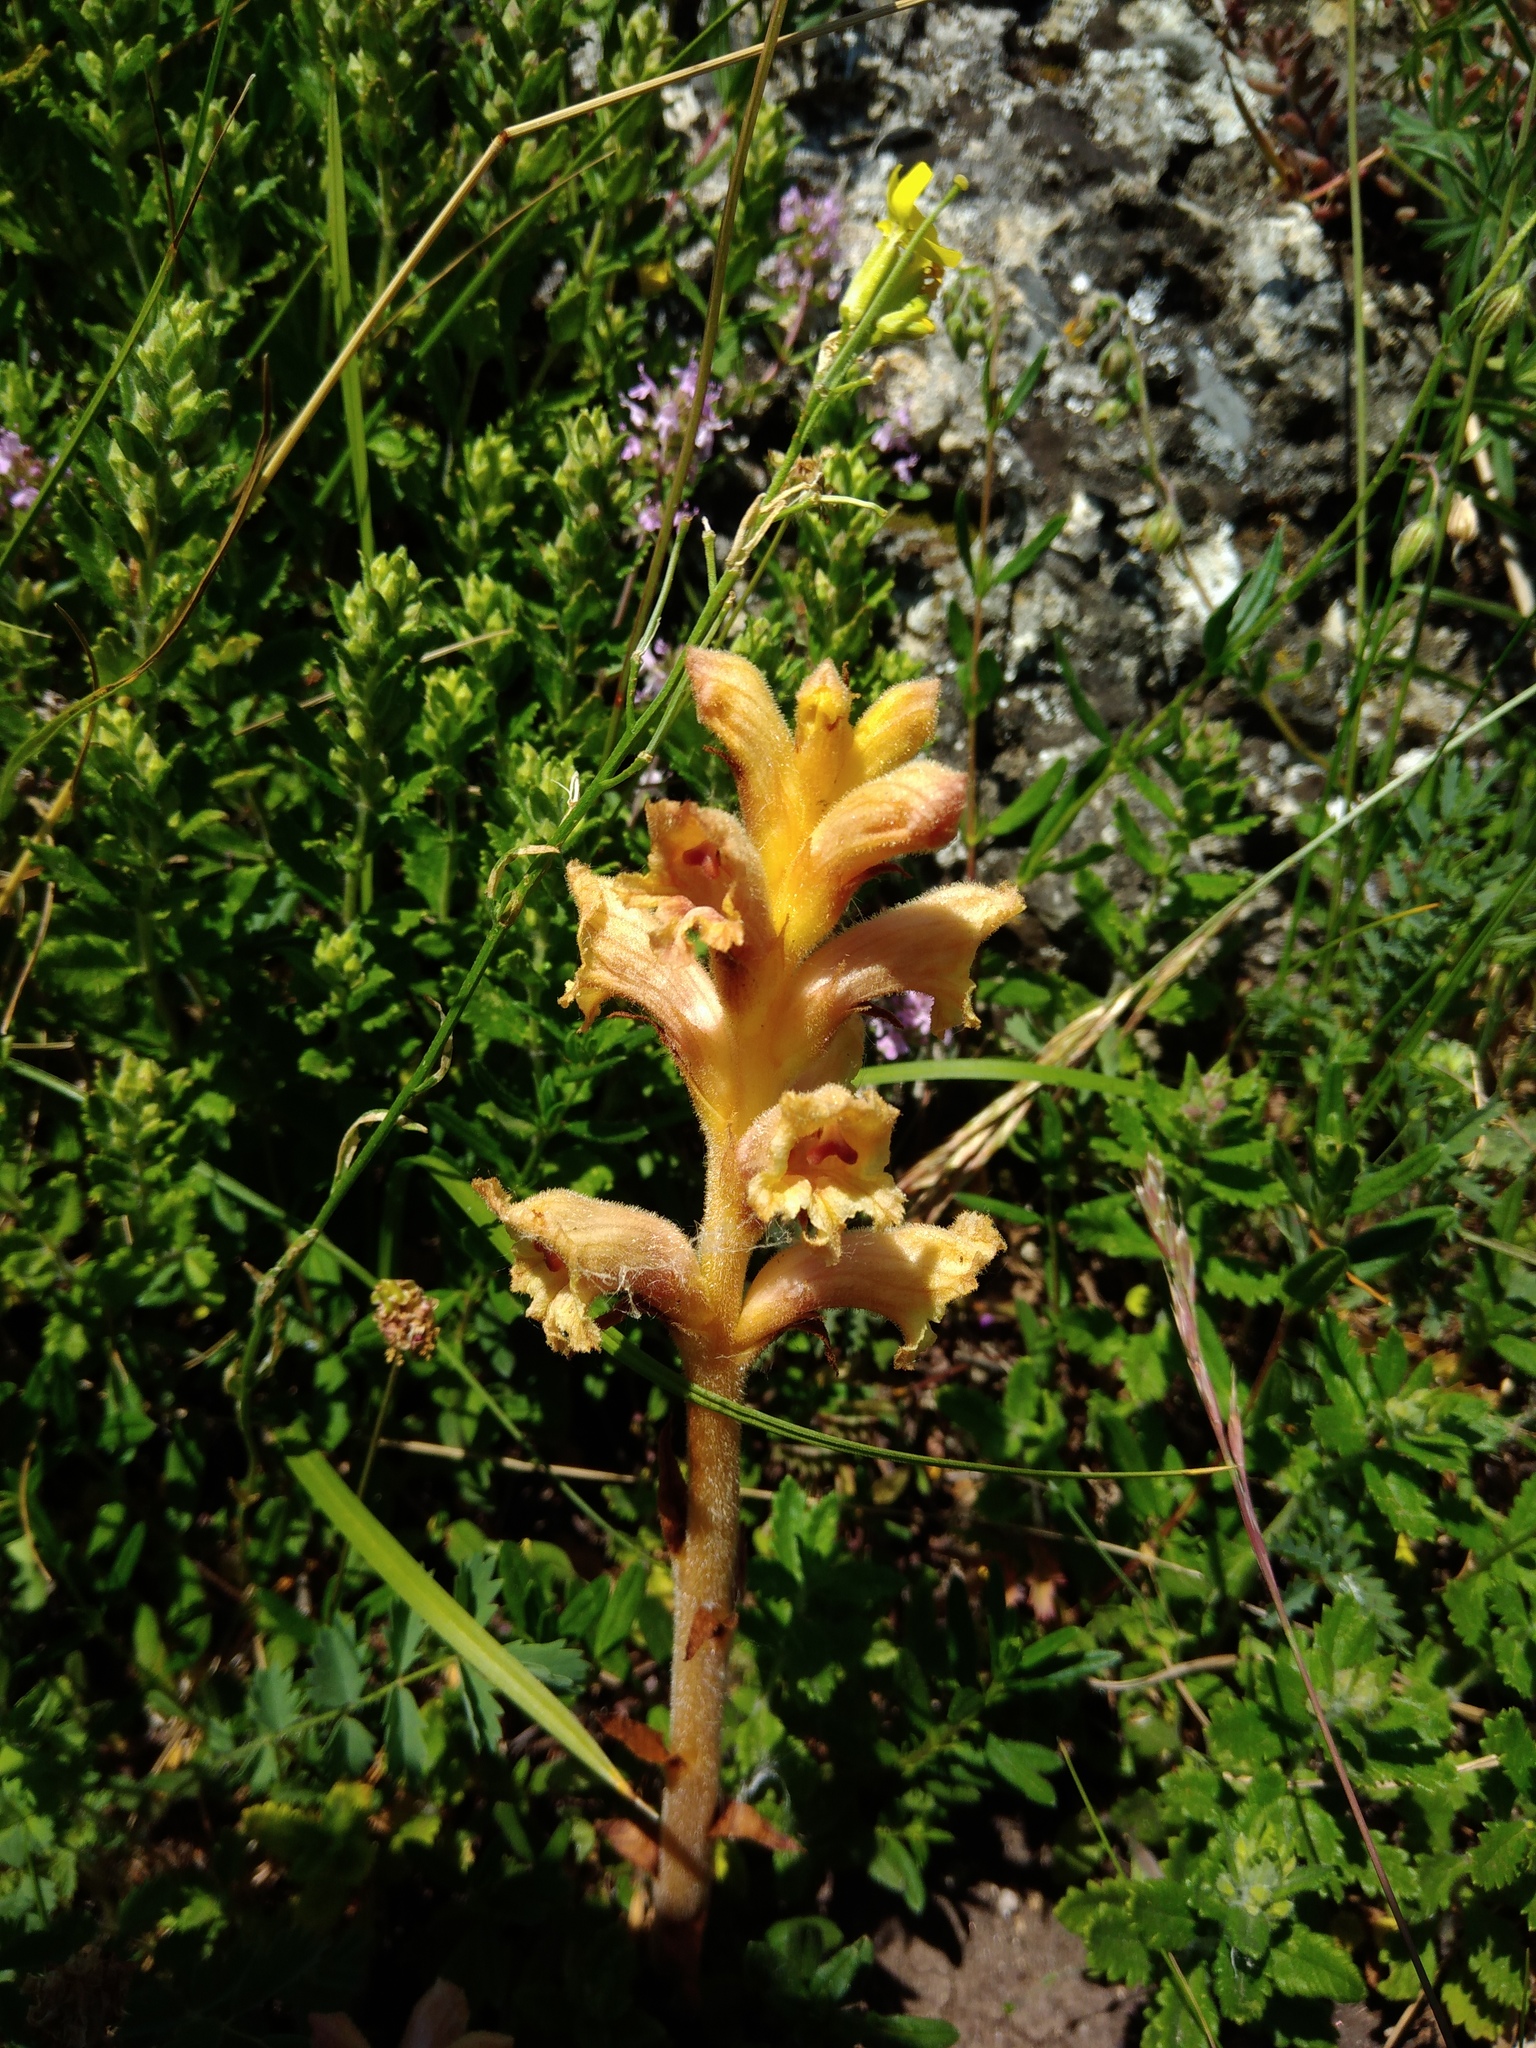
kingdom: Plantae
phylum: Tracheophyta
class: Magnoliopsida
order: Lamiales
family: Orobanchaceae
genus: Orobanche
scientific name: Orobanche teucrii
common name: Germander broomrape
